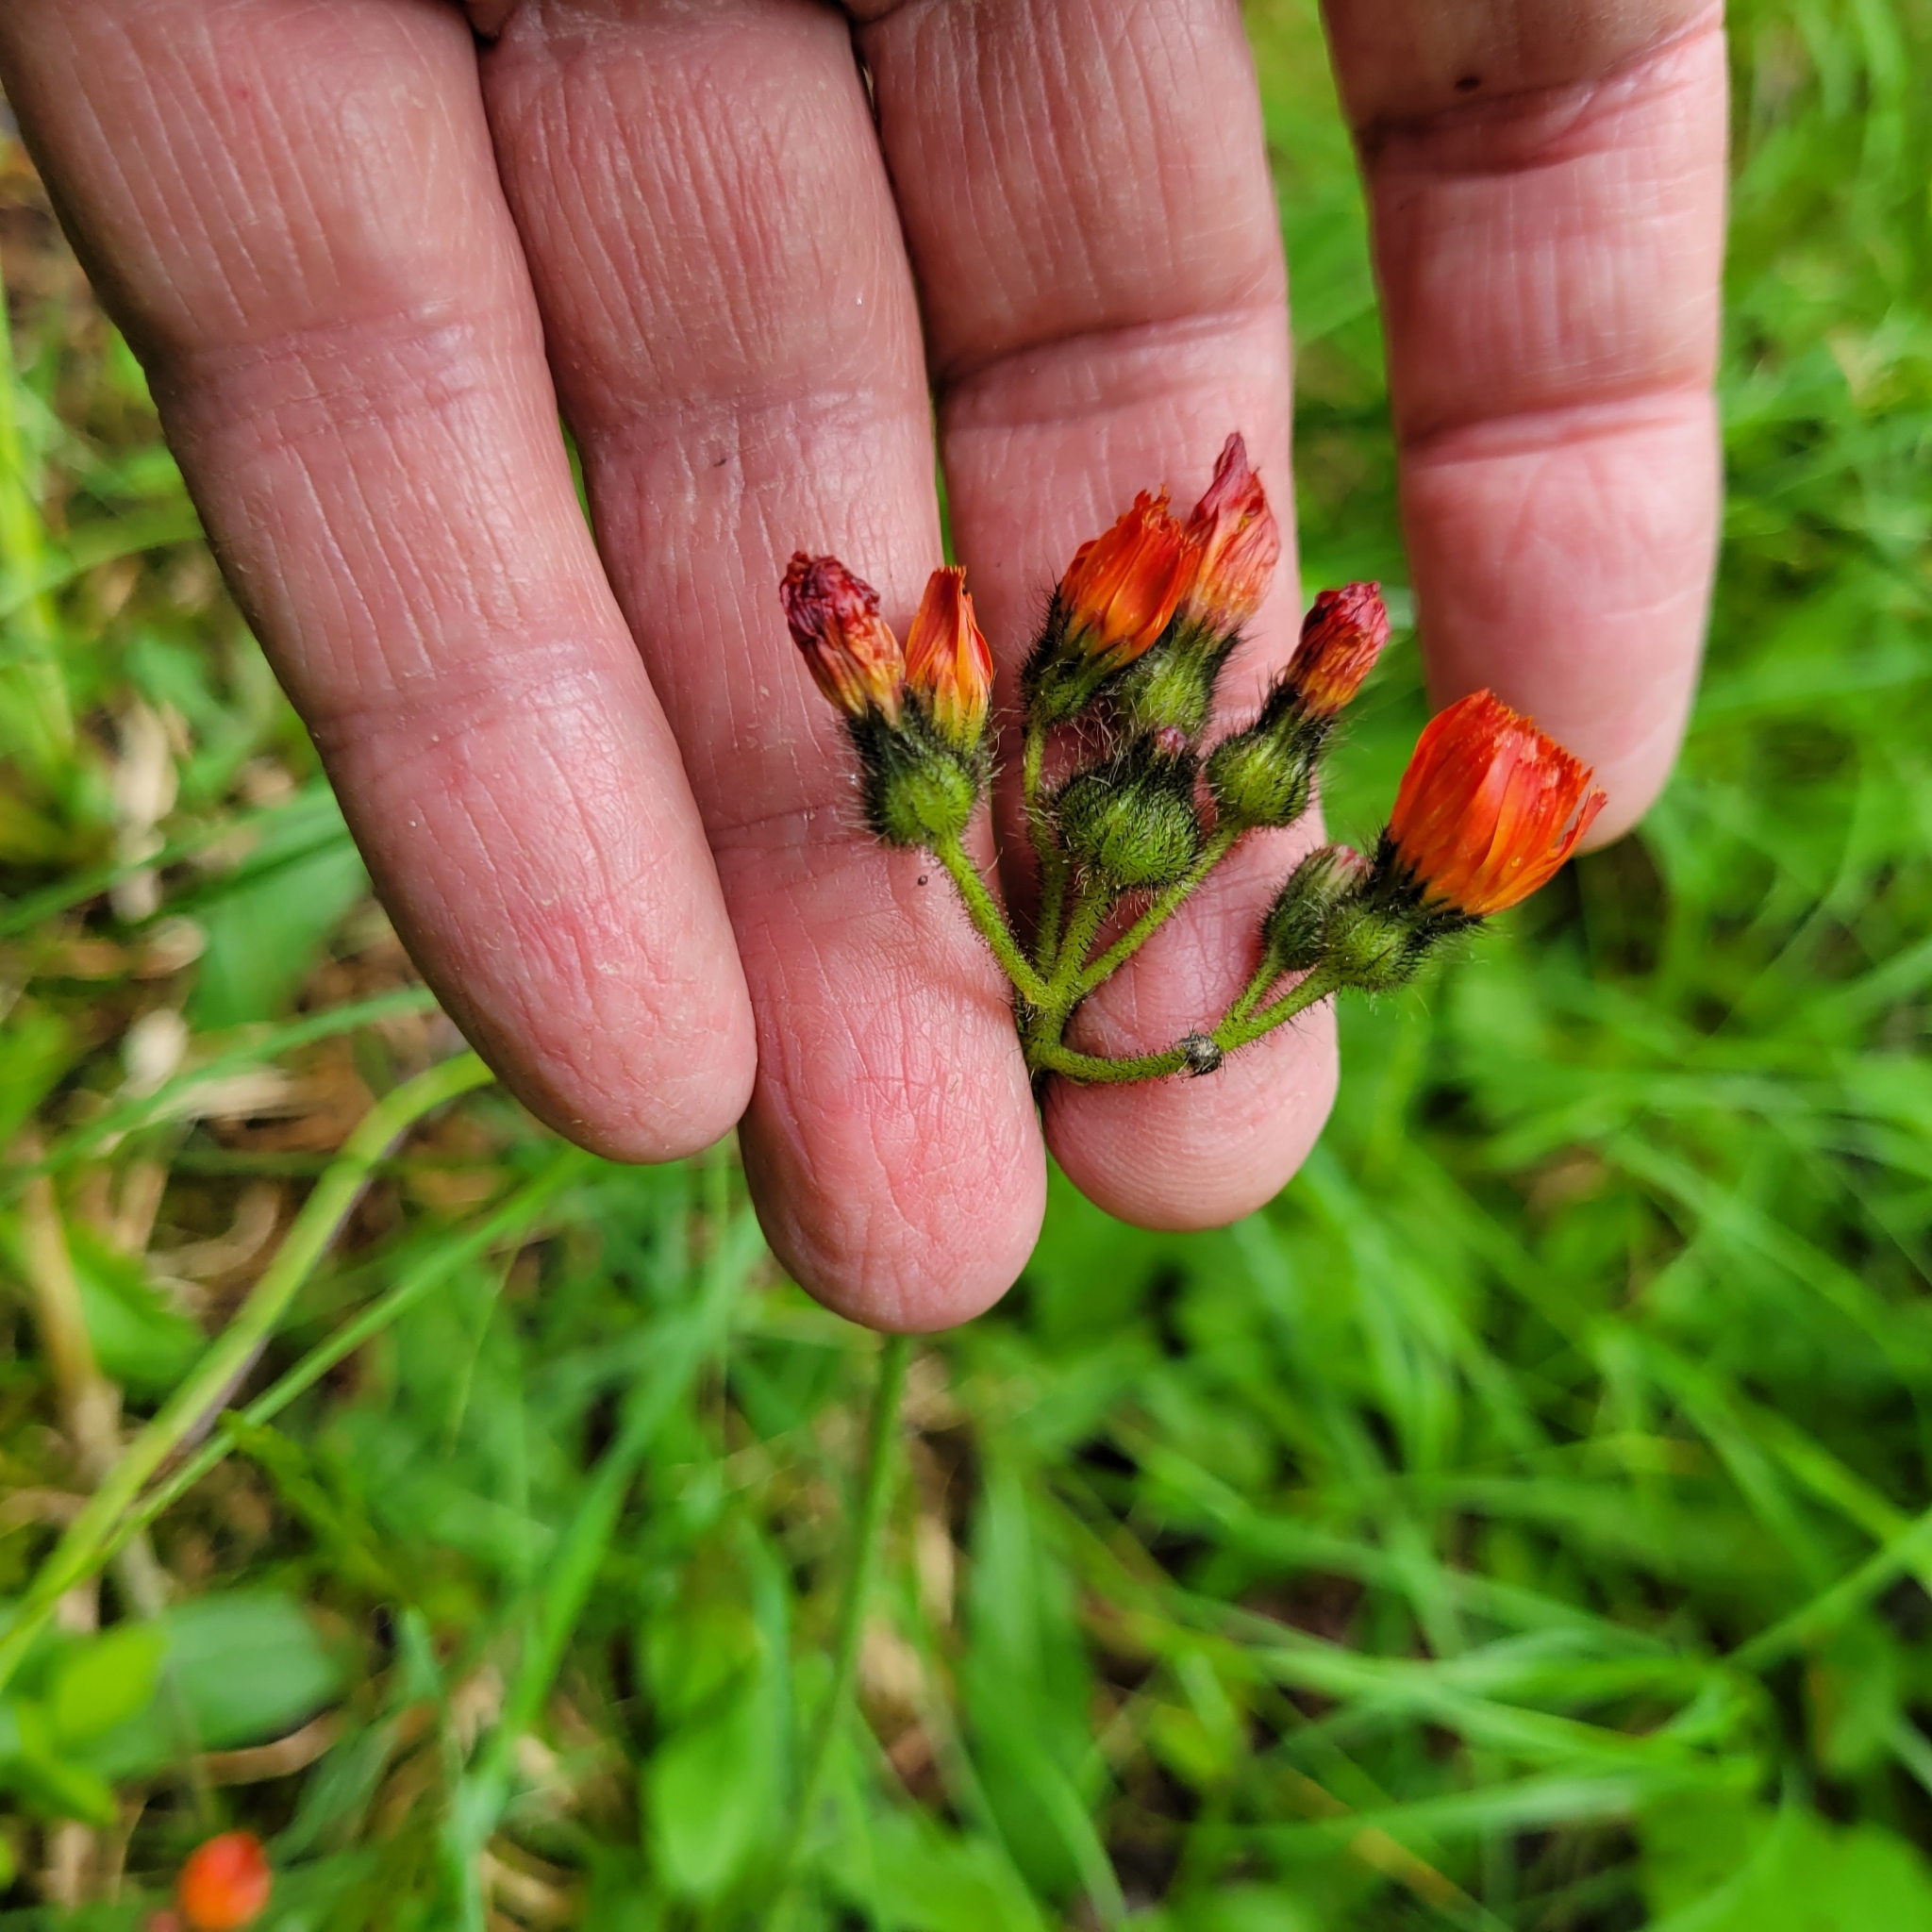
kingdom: Plantae
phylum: Tracheophyta
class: Magnoliopsida
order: Asterales
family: Asteraceae
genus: Pilosella
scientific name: Pilosella aurantiaca
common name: Fox-and-cubs
